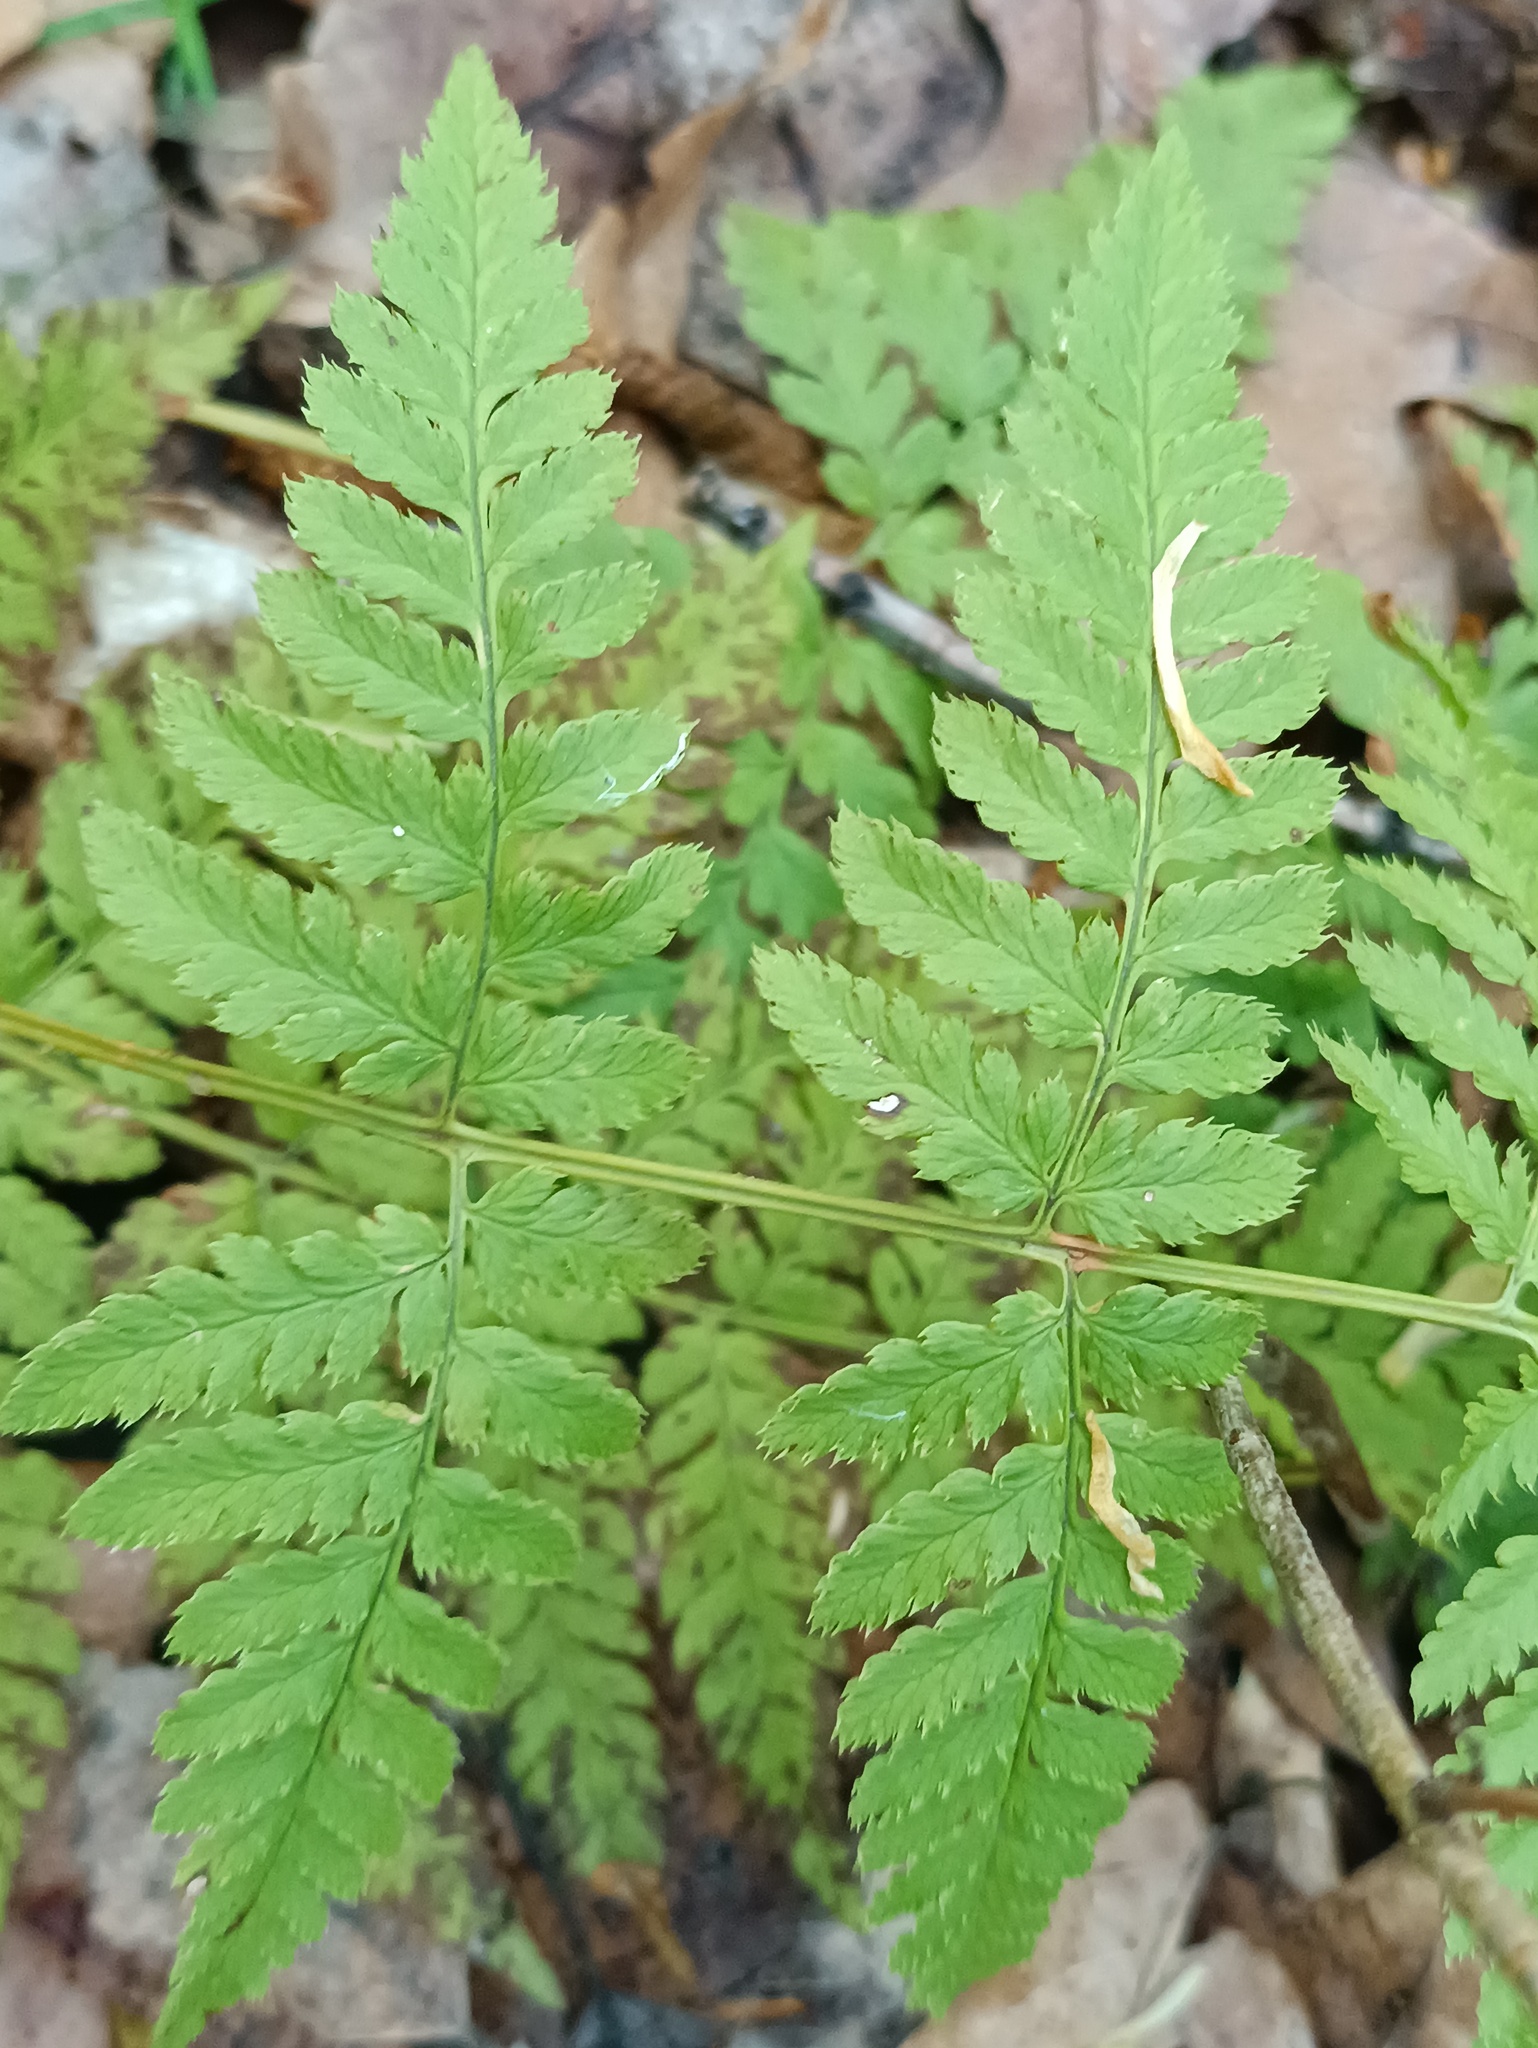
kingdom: Plantae
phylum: Tracheophyta
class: Polypodiopsida
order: Polypodiales
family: Dryopteridaceae
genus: Dryopteris
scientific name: Dryopteris carthusiana
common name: Narrow buckler-fern
